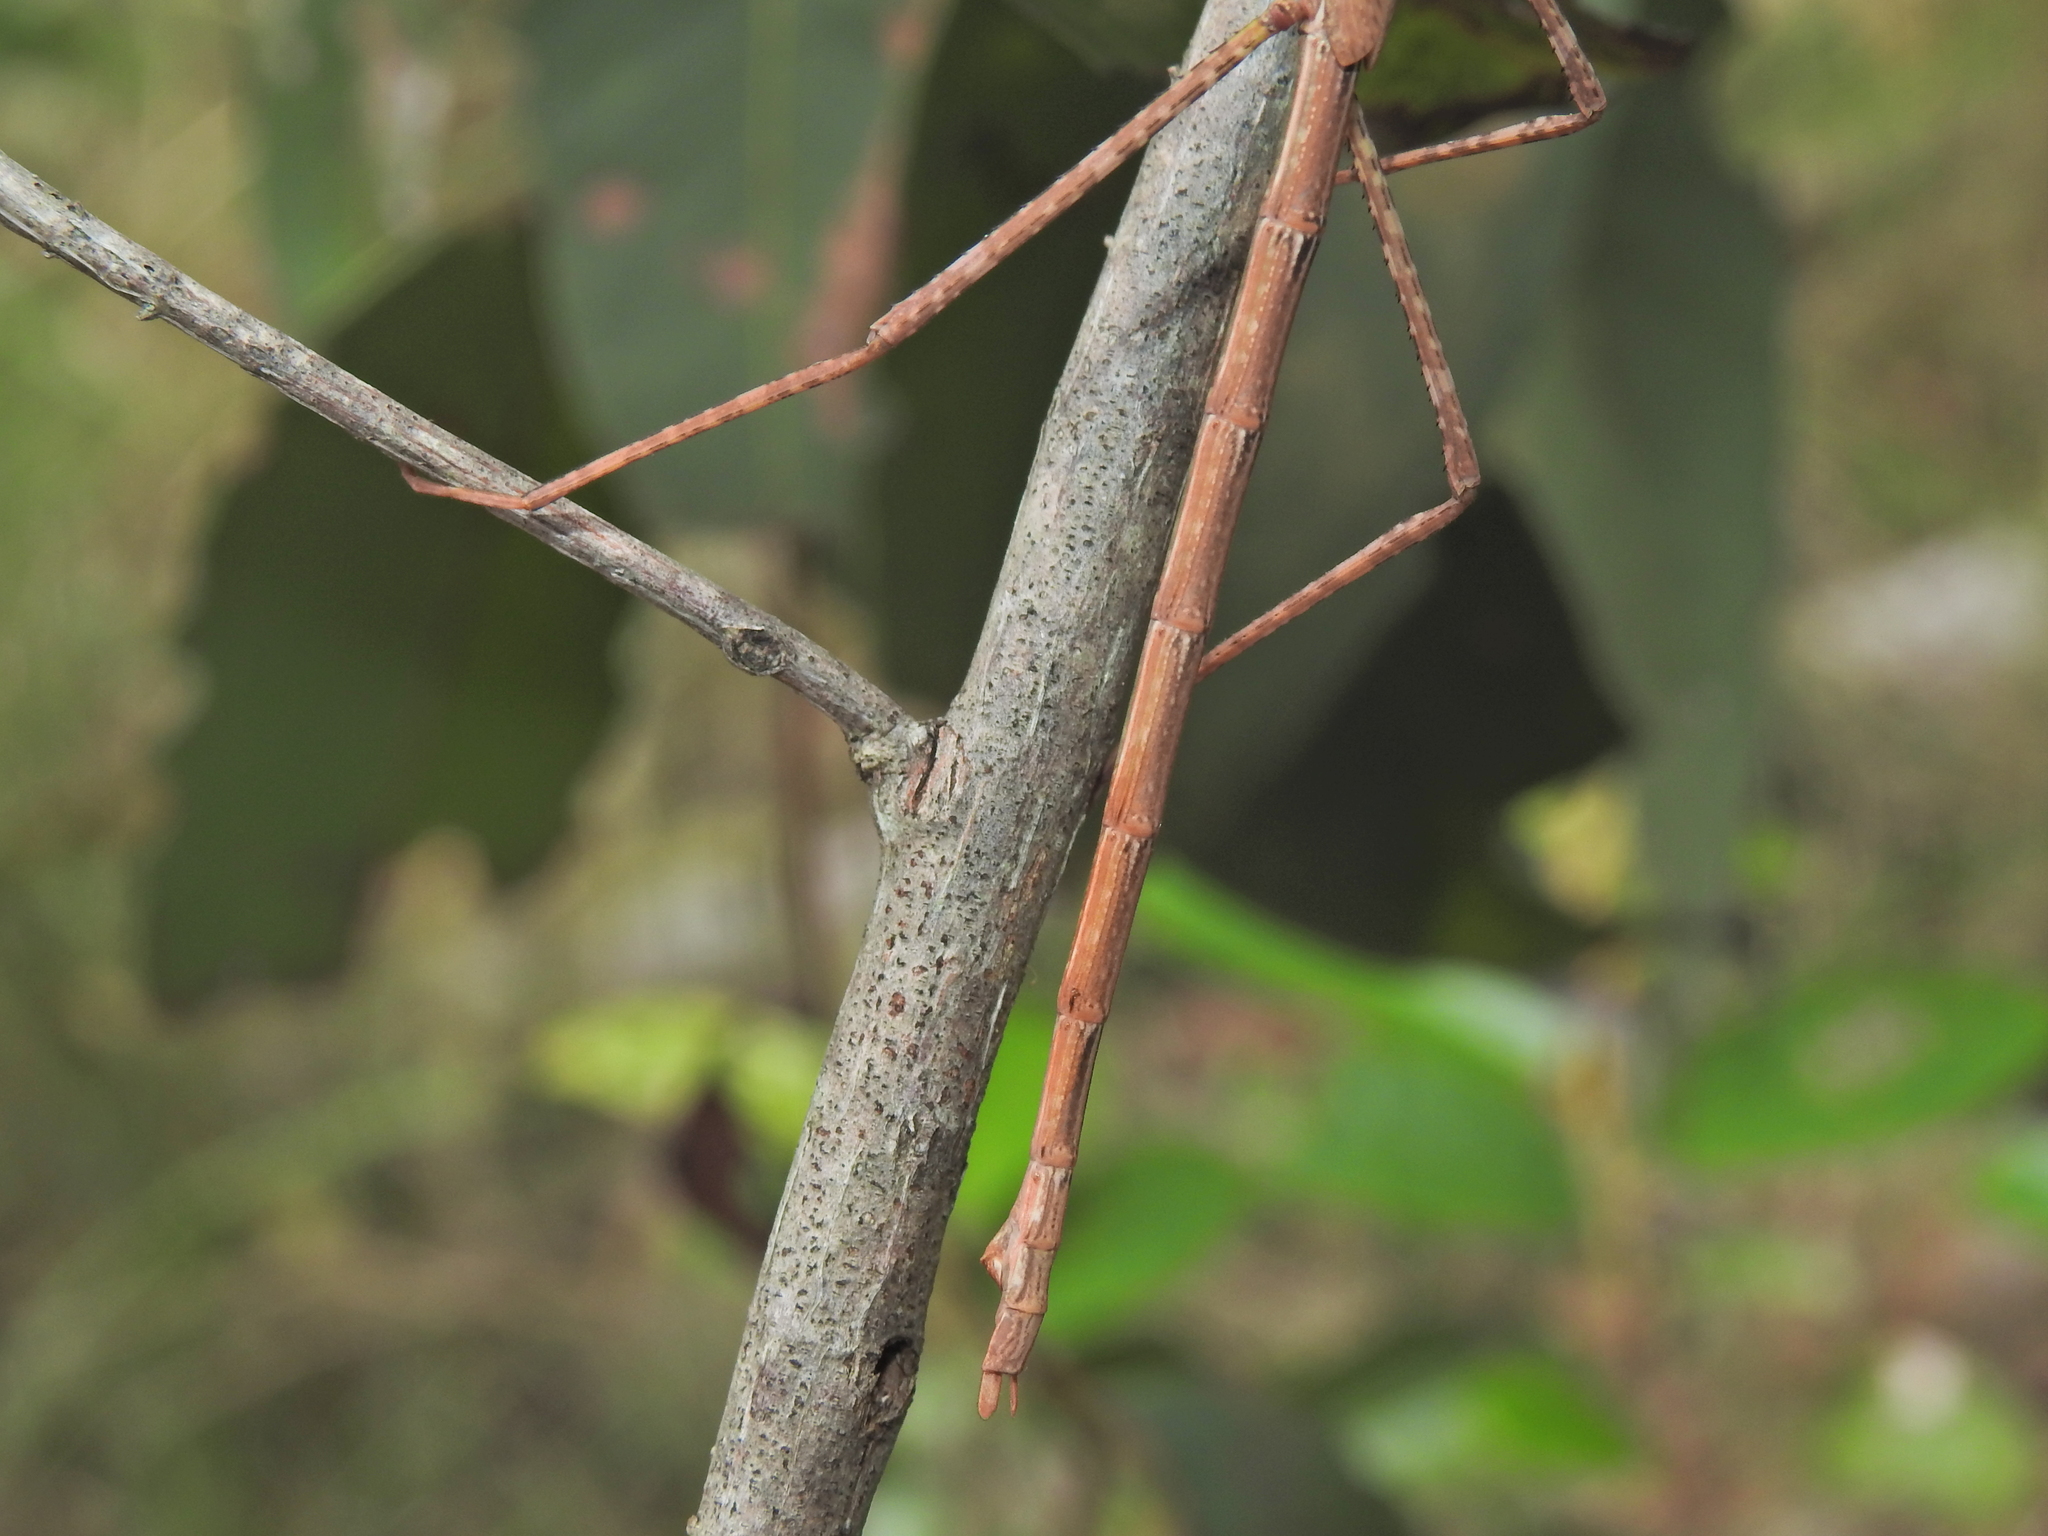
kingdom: Animalia
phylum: Arthropoda
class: Insecta
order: Phasmida
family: Phasmatidae
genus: Anchiale
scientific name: Anchiale austrotessulata
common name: Tessellated stick-insect
